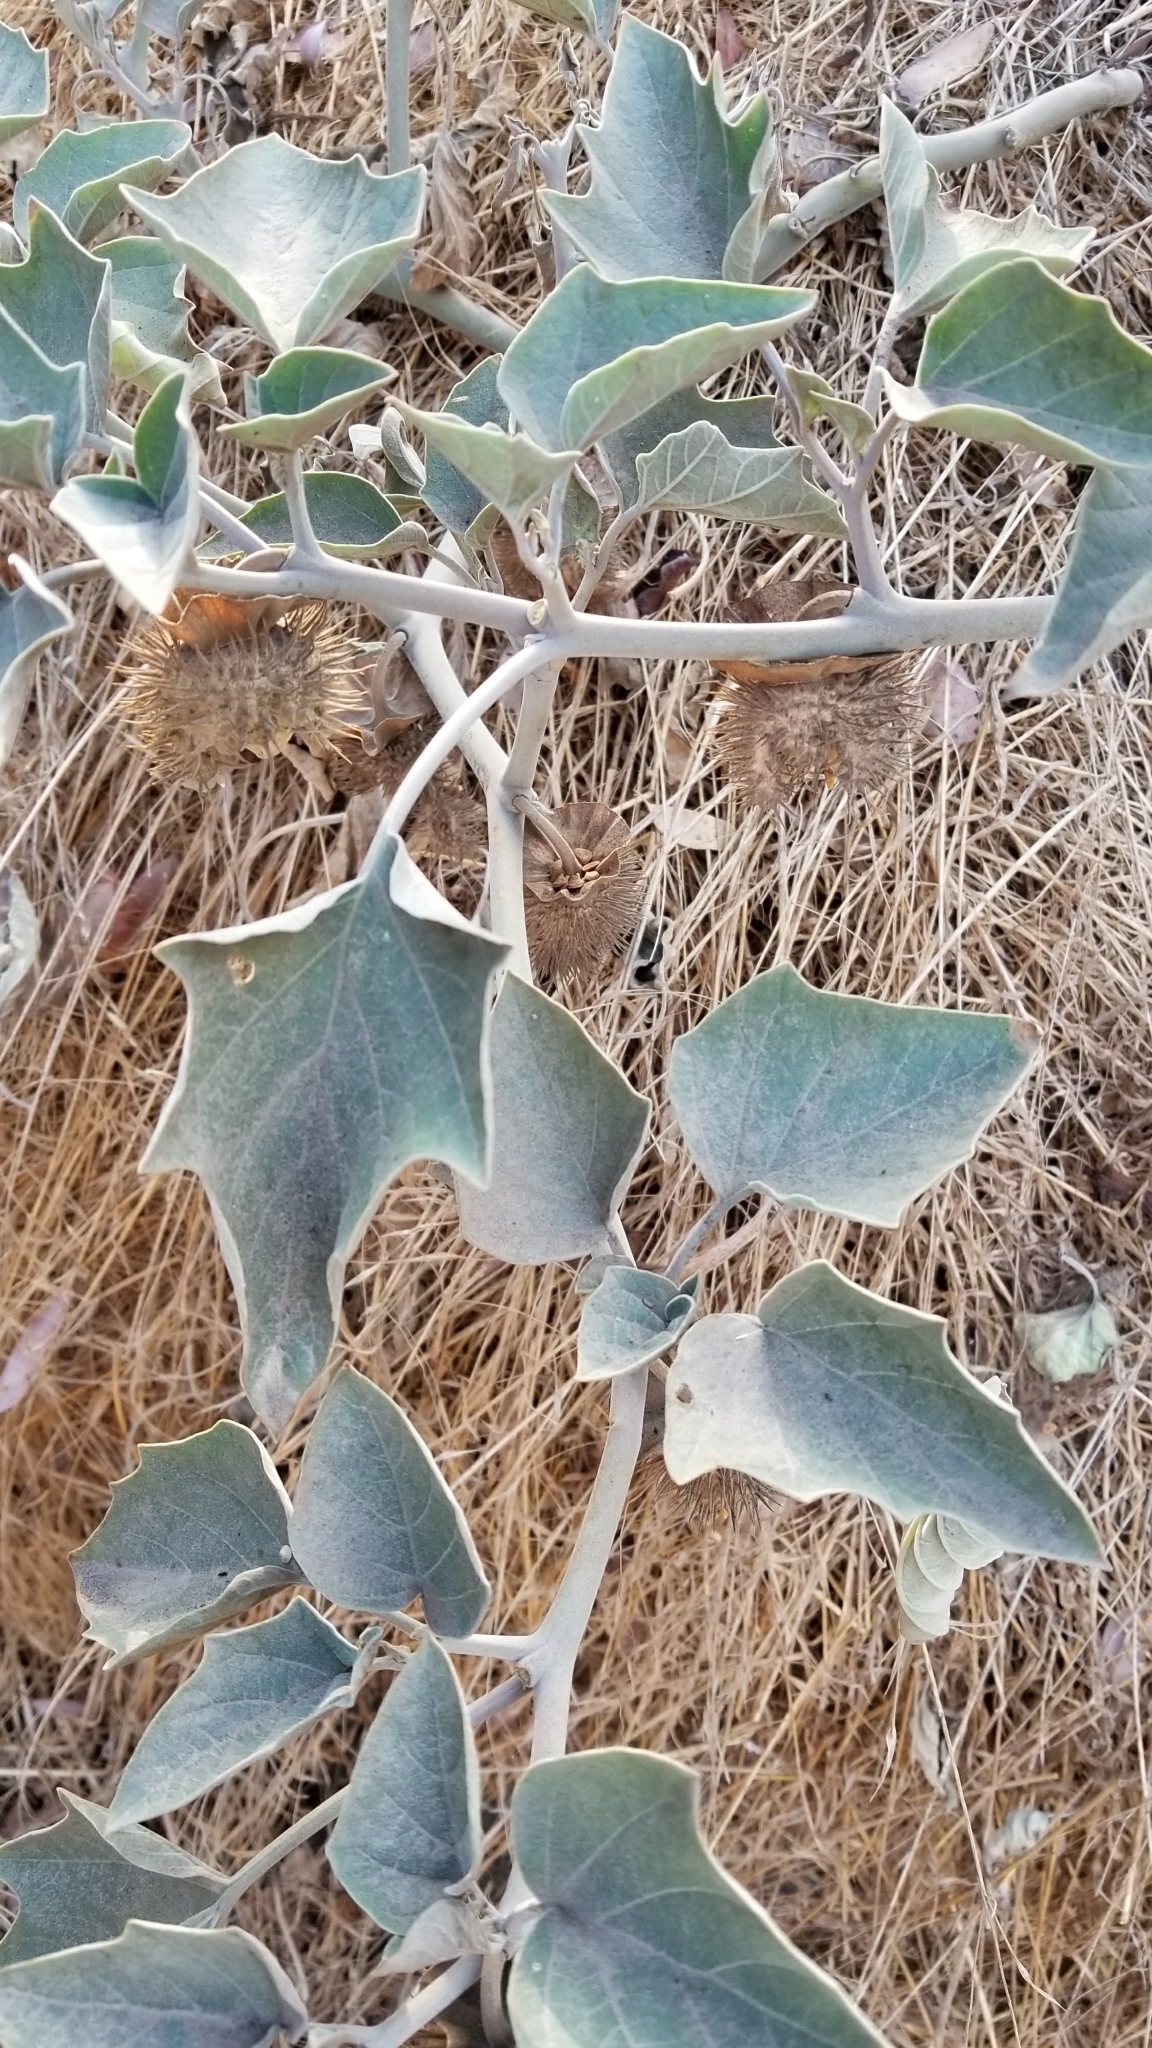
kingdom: Plantae
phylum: Tracheophyta
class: Magnoliopsida
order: Cucurbitales
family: Cucurbitaceae
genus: Cucurbita
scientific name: Cucurbita foetidissima
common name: Buffalo gourd
